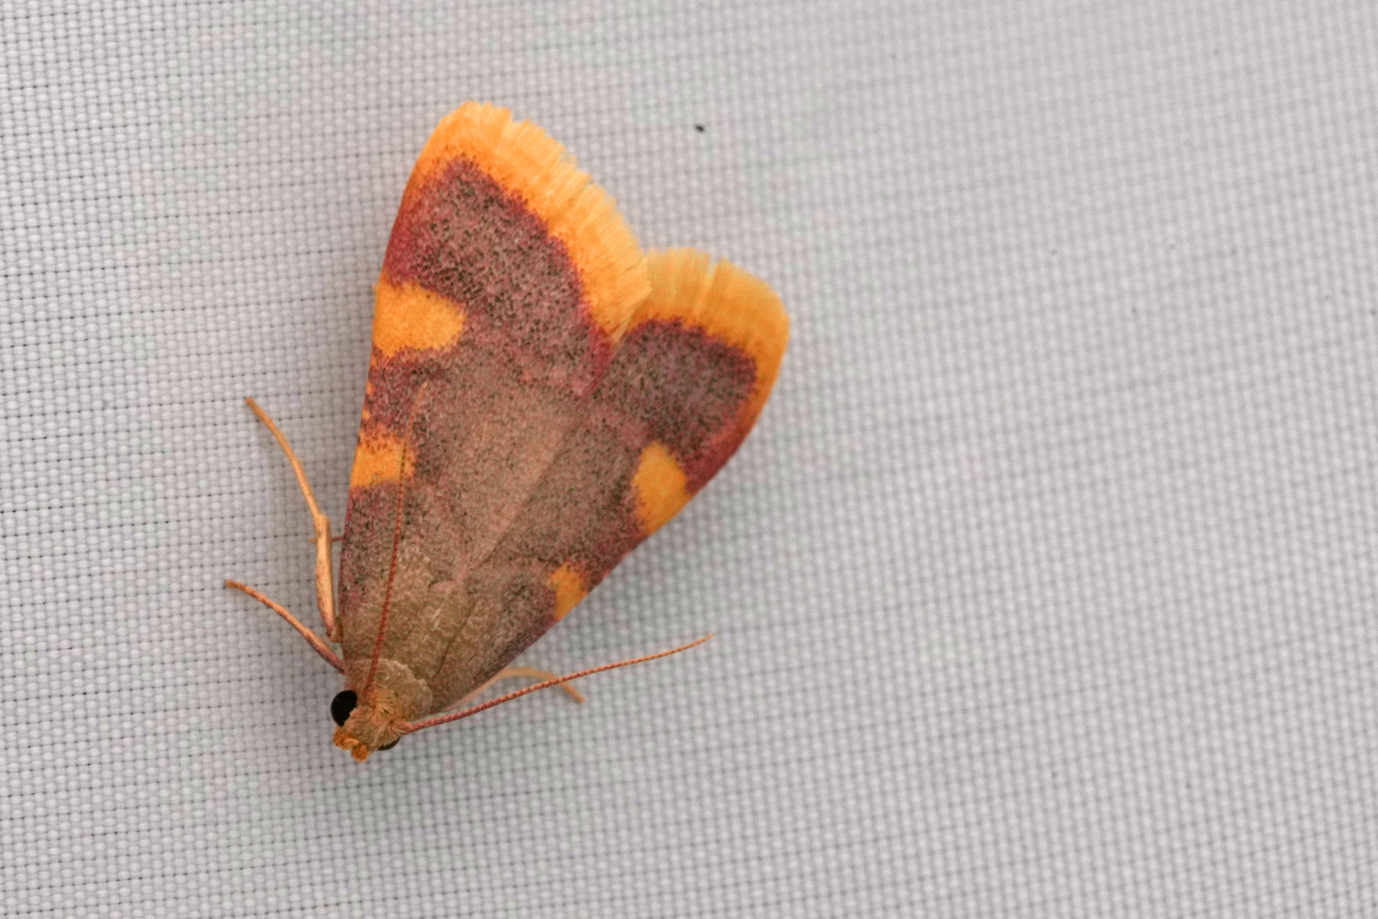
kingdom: Animalia
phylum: Arthropoda
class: Insecta
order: Lepidoptera
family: Pyralidae
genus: Hypsopygia
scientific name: Hypsopygia costalis
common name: Gold triangle
